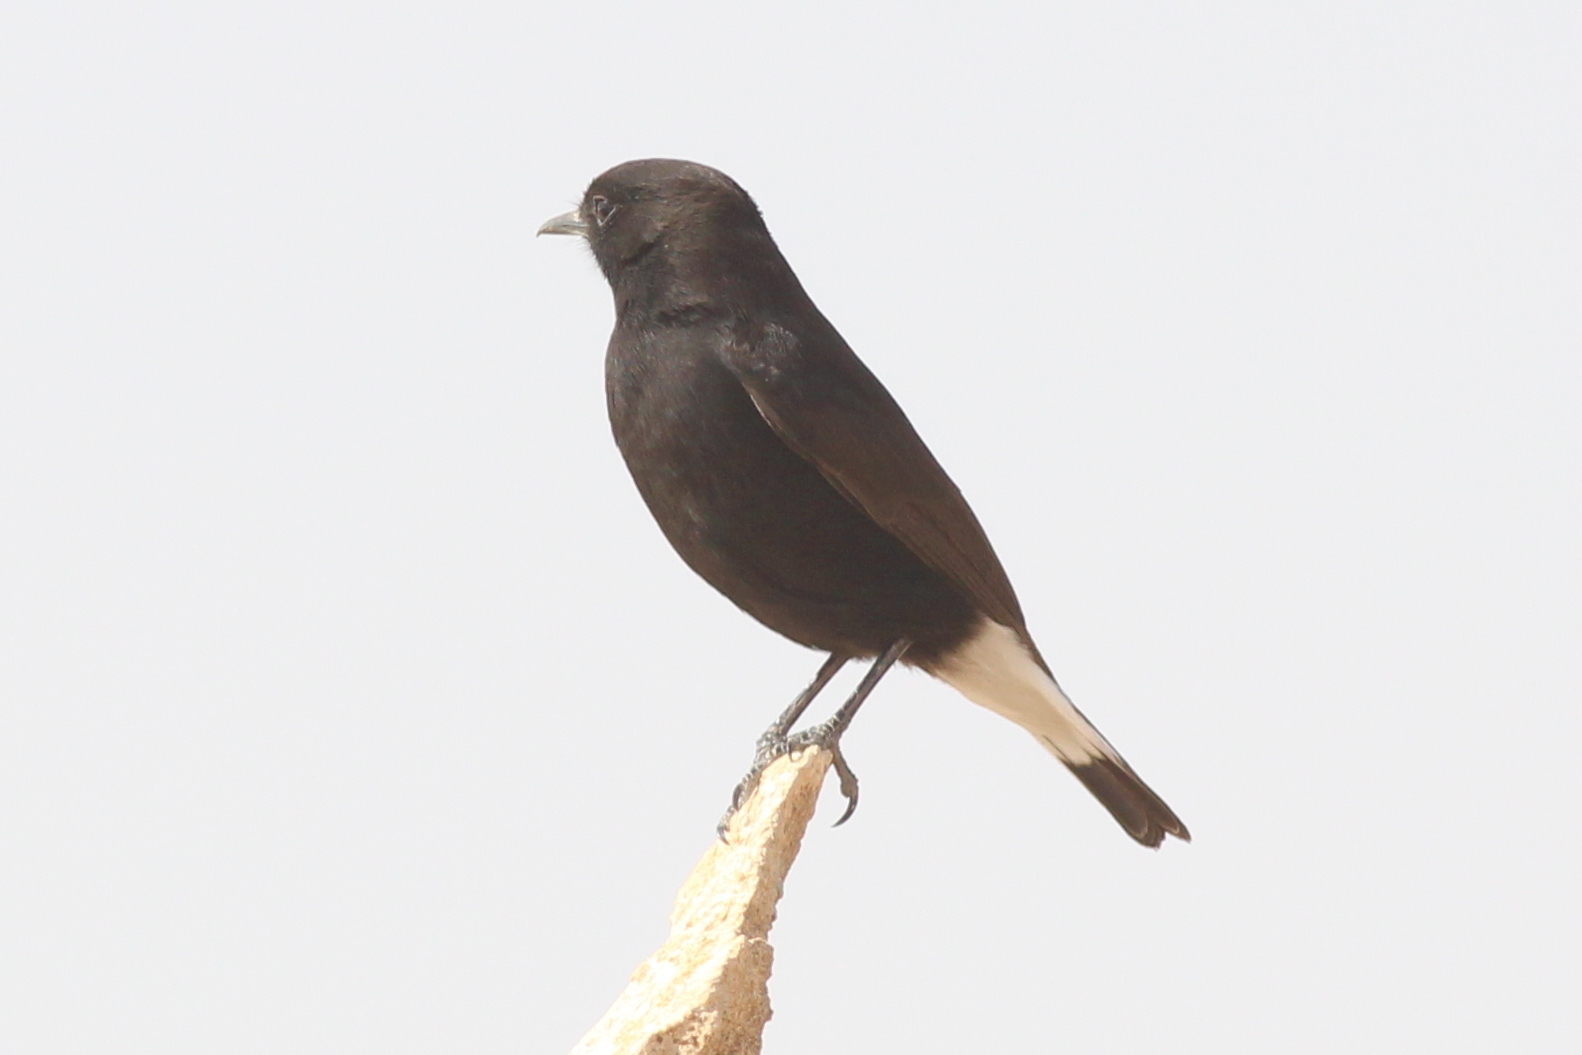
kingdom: Animalia
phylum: Chordata
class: Aves
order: Passeriformes
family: Muscicapidae
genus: Oenanthe
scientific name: Oenanthe leucura
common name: Black wheatear
